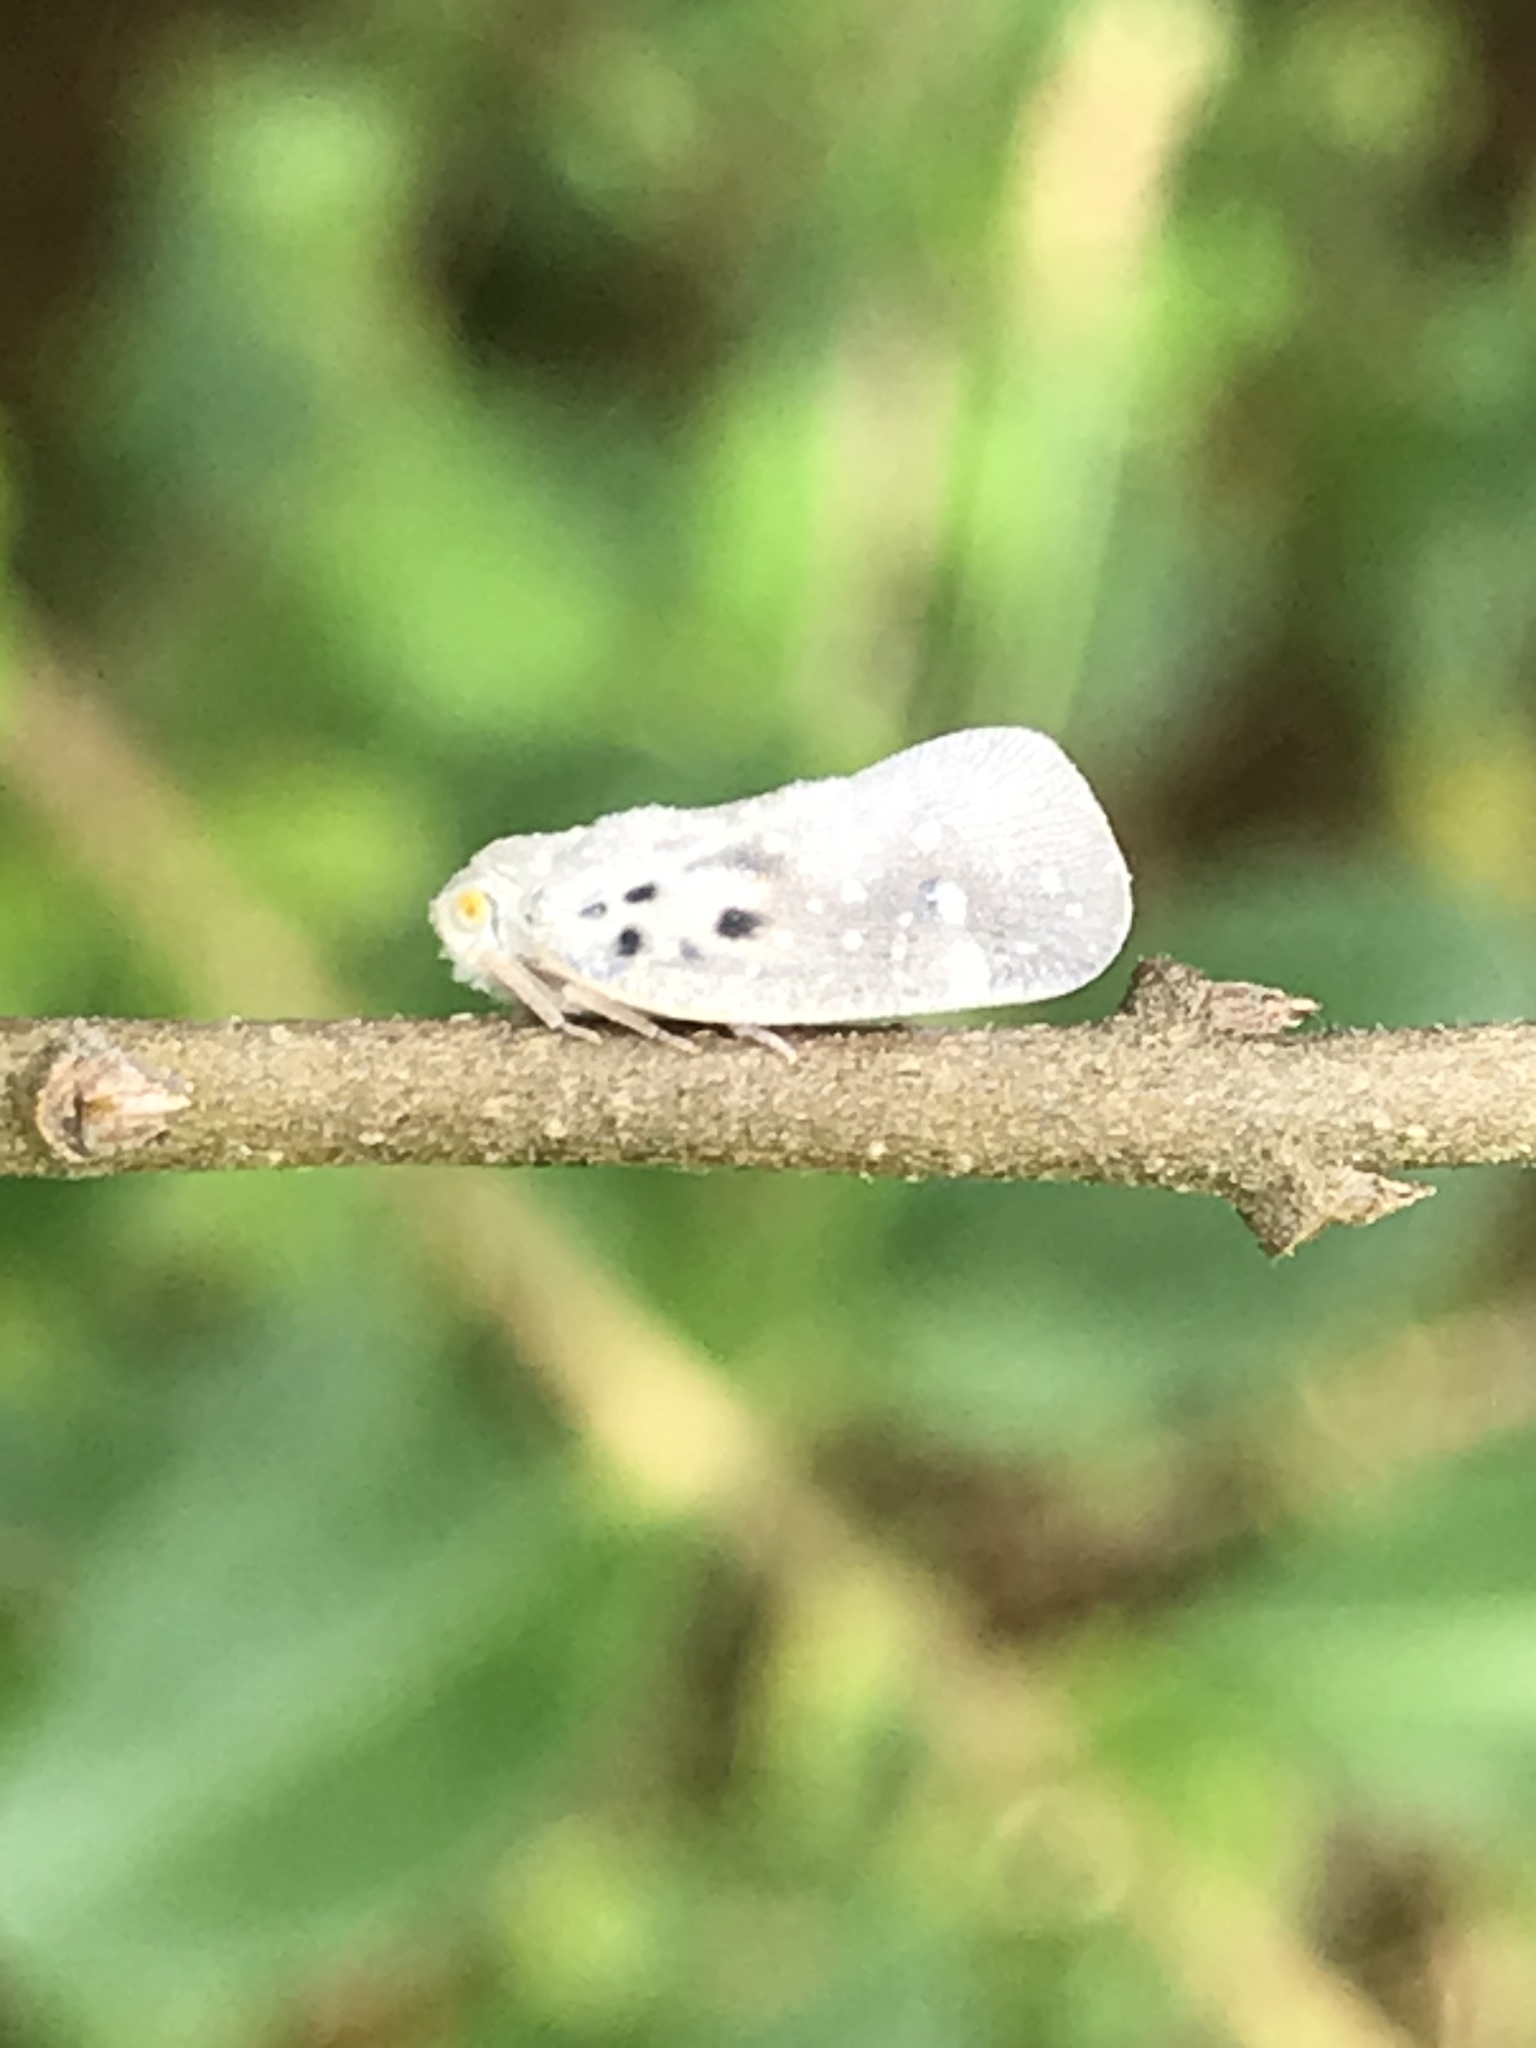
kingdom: Animalia
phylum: Arthropoda
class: Insecta
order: Hemiptera
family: Flatidae
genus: Metcalfa
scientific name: Metcalfa pruinosa
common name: Citrus flatid planthopper
